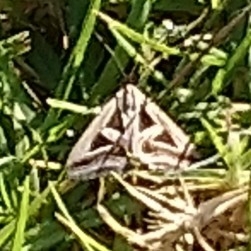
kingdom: Animalia
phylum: Arthropoda
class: Insecta
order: Lepidoptera
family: Erebidae
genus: Trigonodes
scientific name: Trigonodes hyppasia
